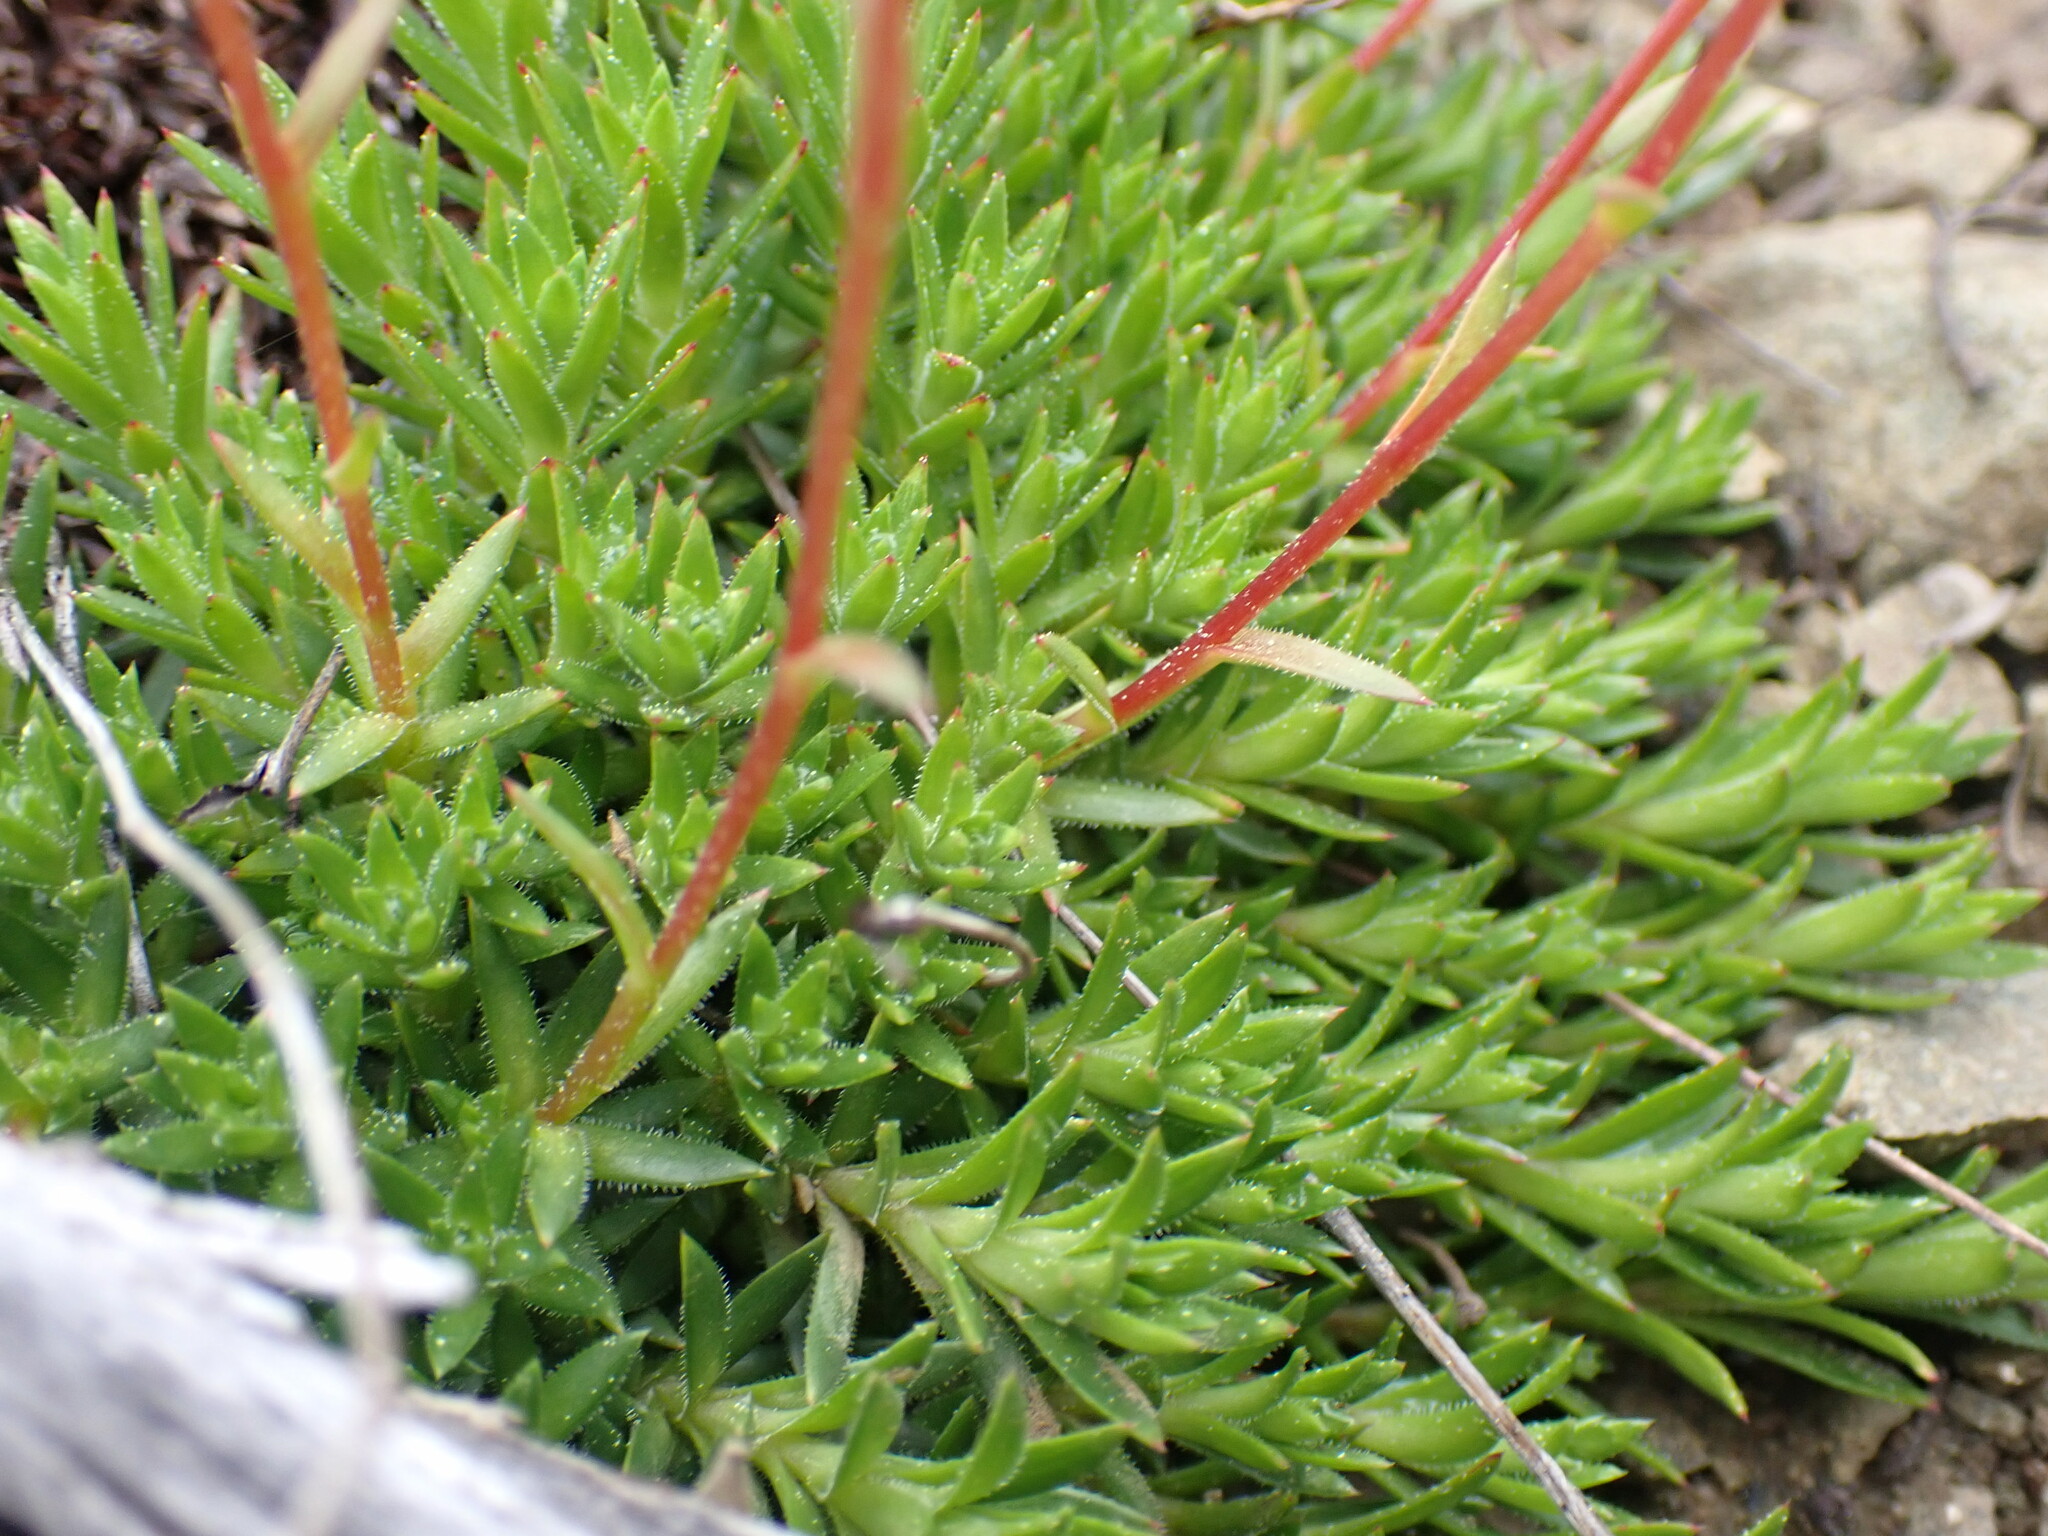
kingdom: Plantae
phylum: Tracheophyta
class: Magnoliopsida
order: Saxifragales
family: Saxifragaceae
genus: Saxifraga
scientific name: Saxifraga bronchialis
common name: Matted saxifrage
